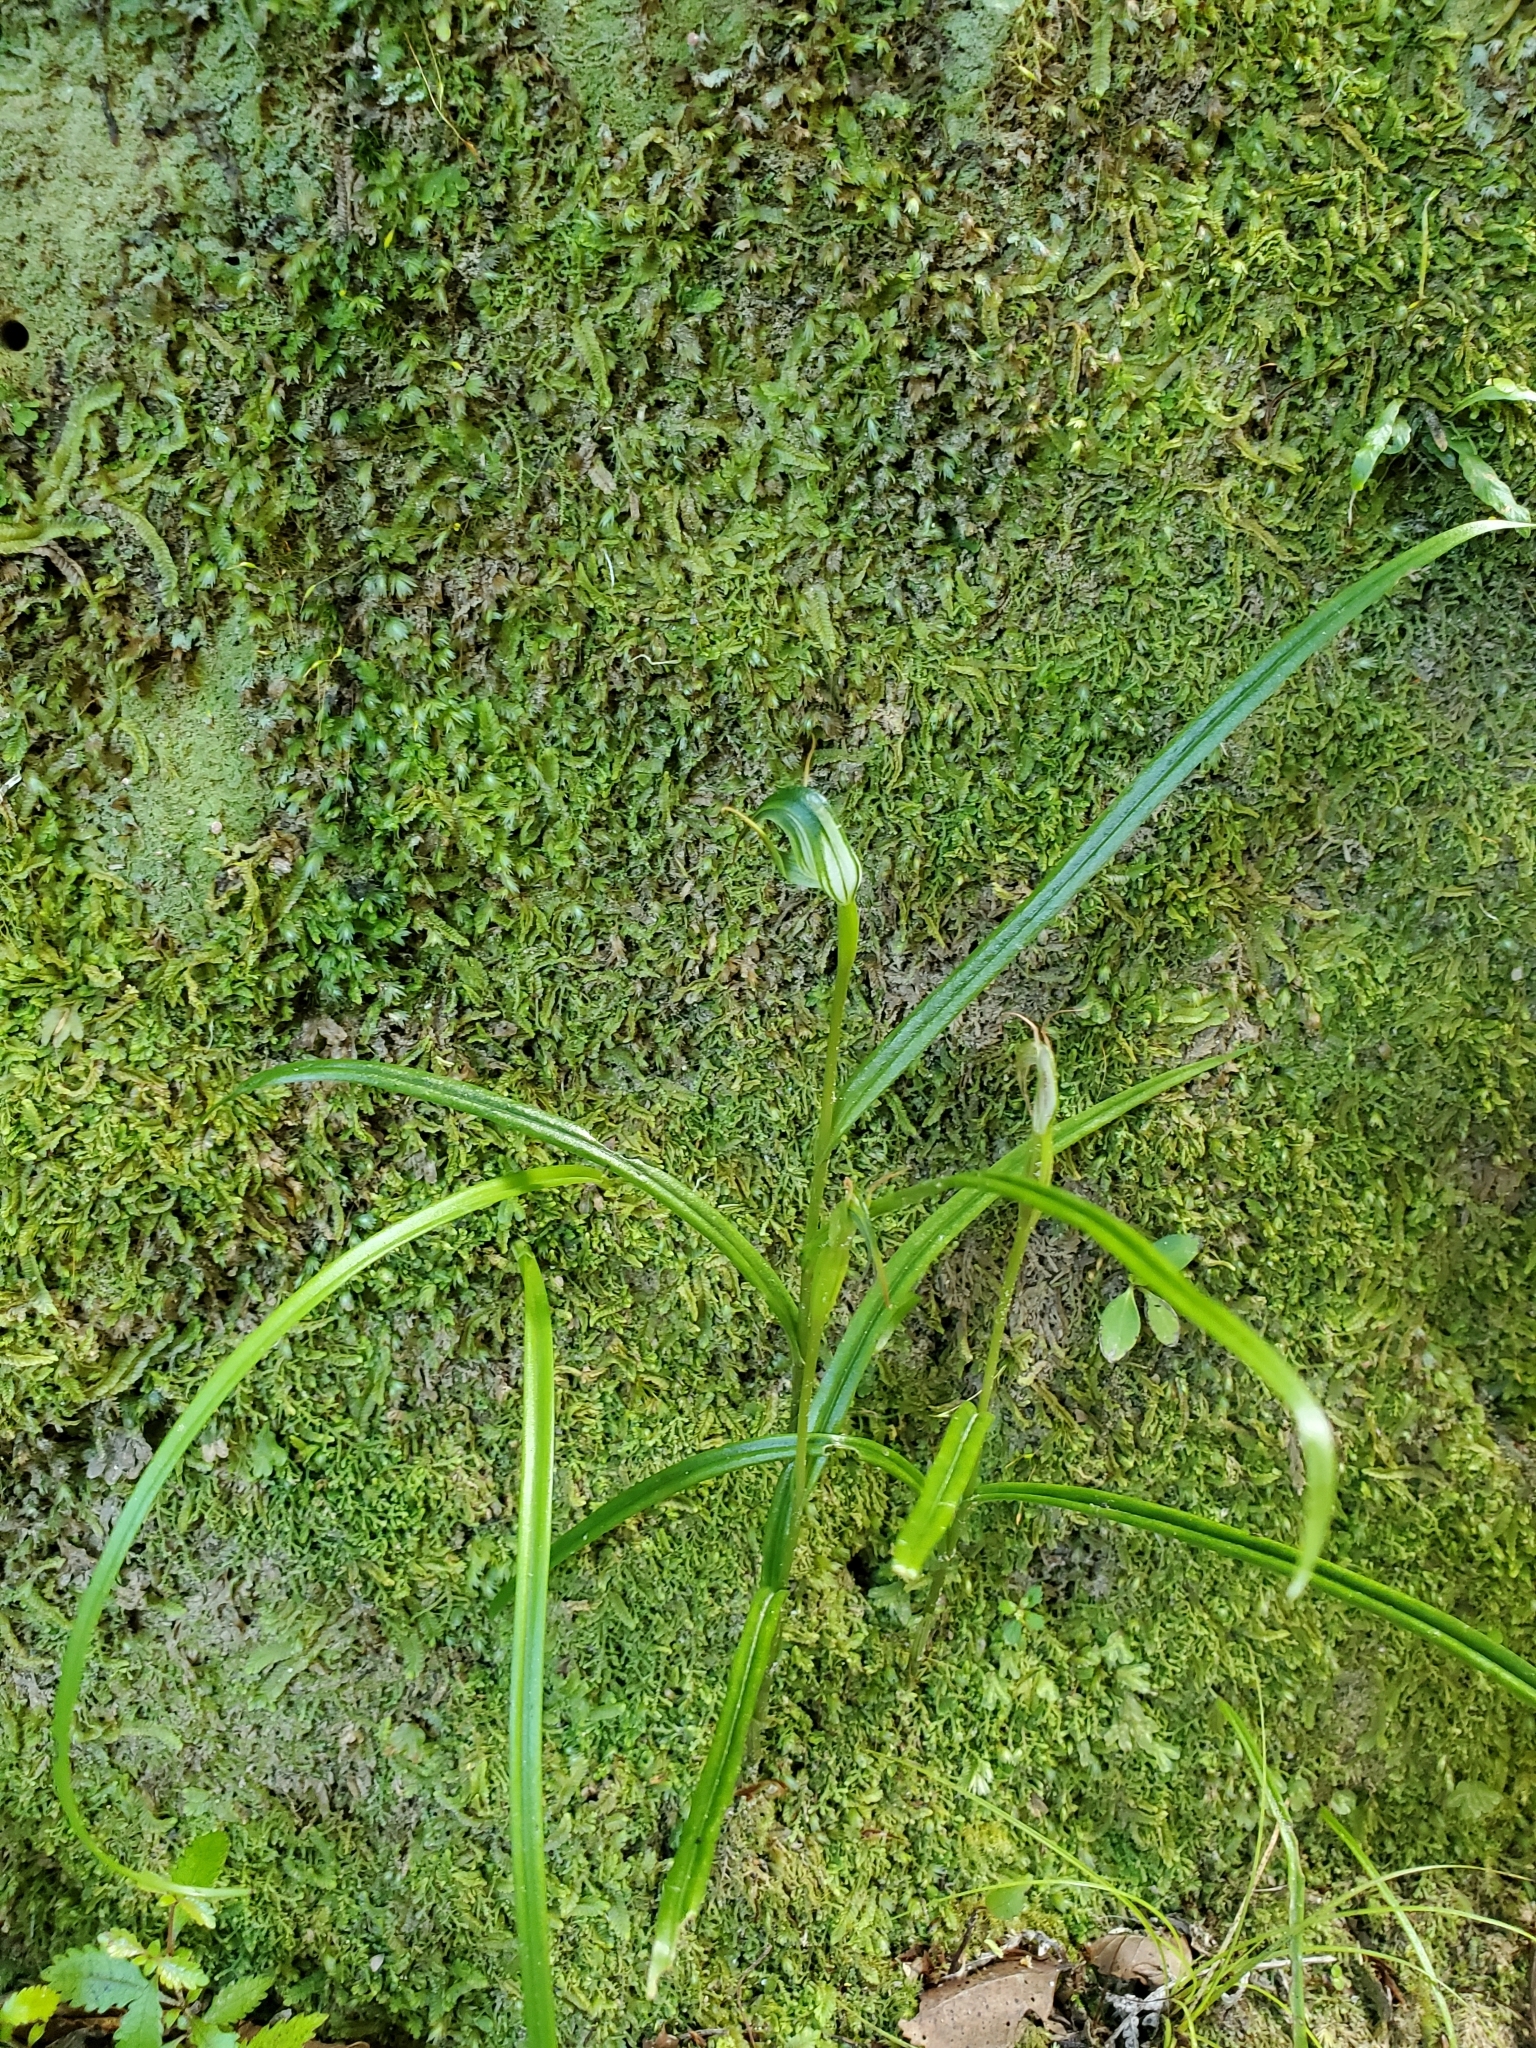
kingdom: Plantae
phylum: Tracheophyta
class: Liliopsida
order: Asparagales
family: Orchidaceae
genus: Pterostylis
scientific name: Pterostylis graminea
